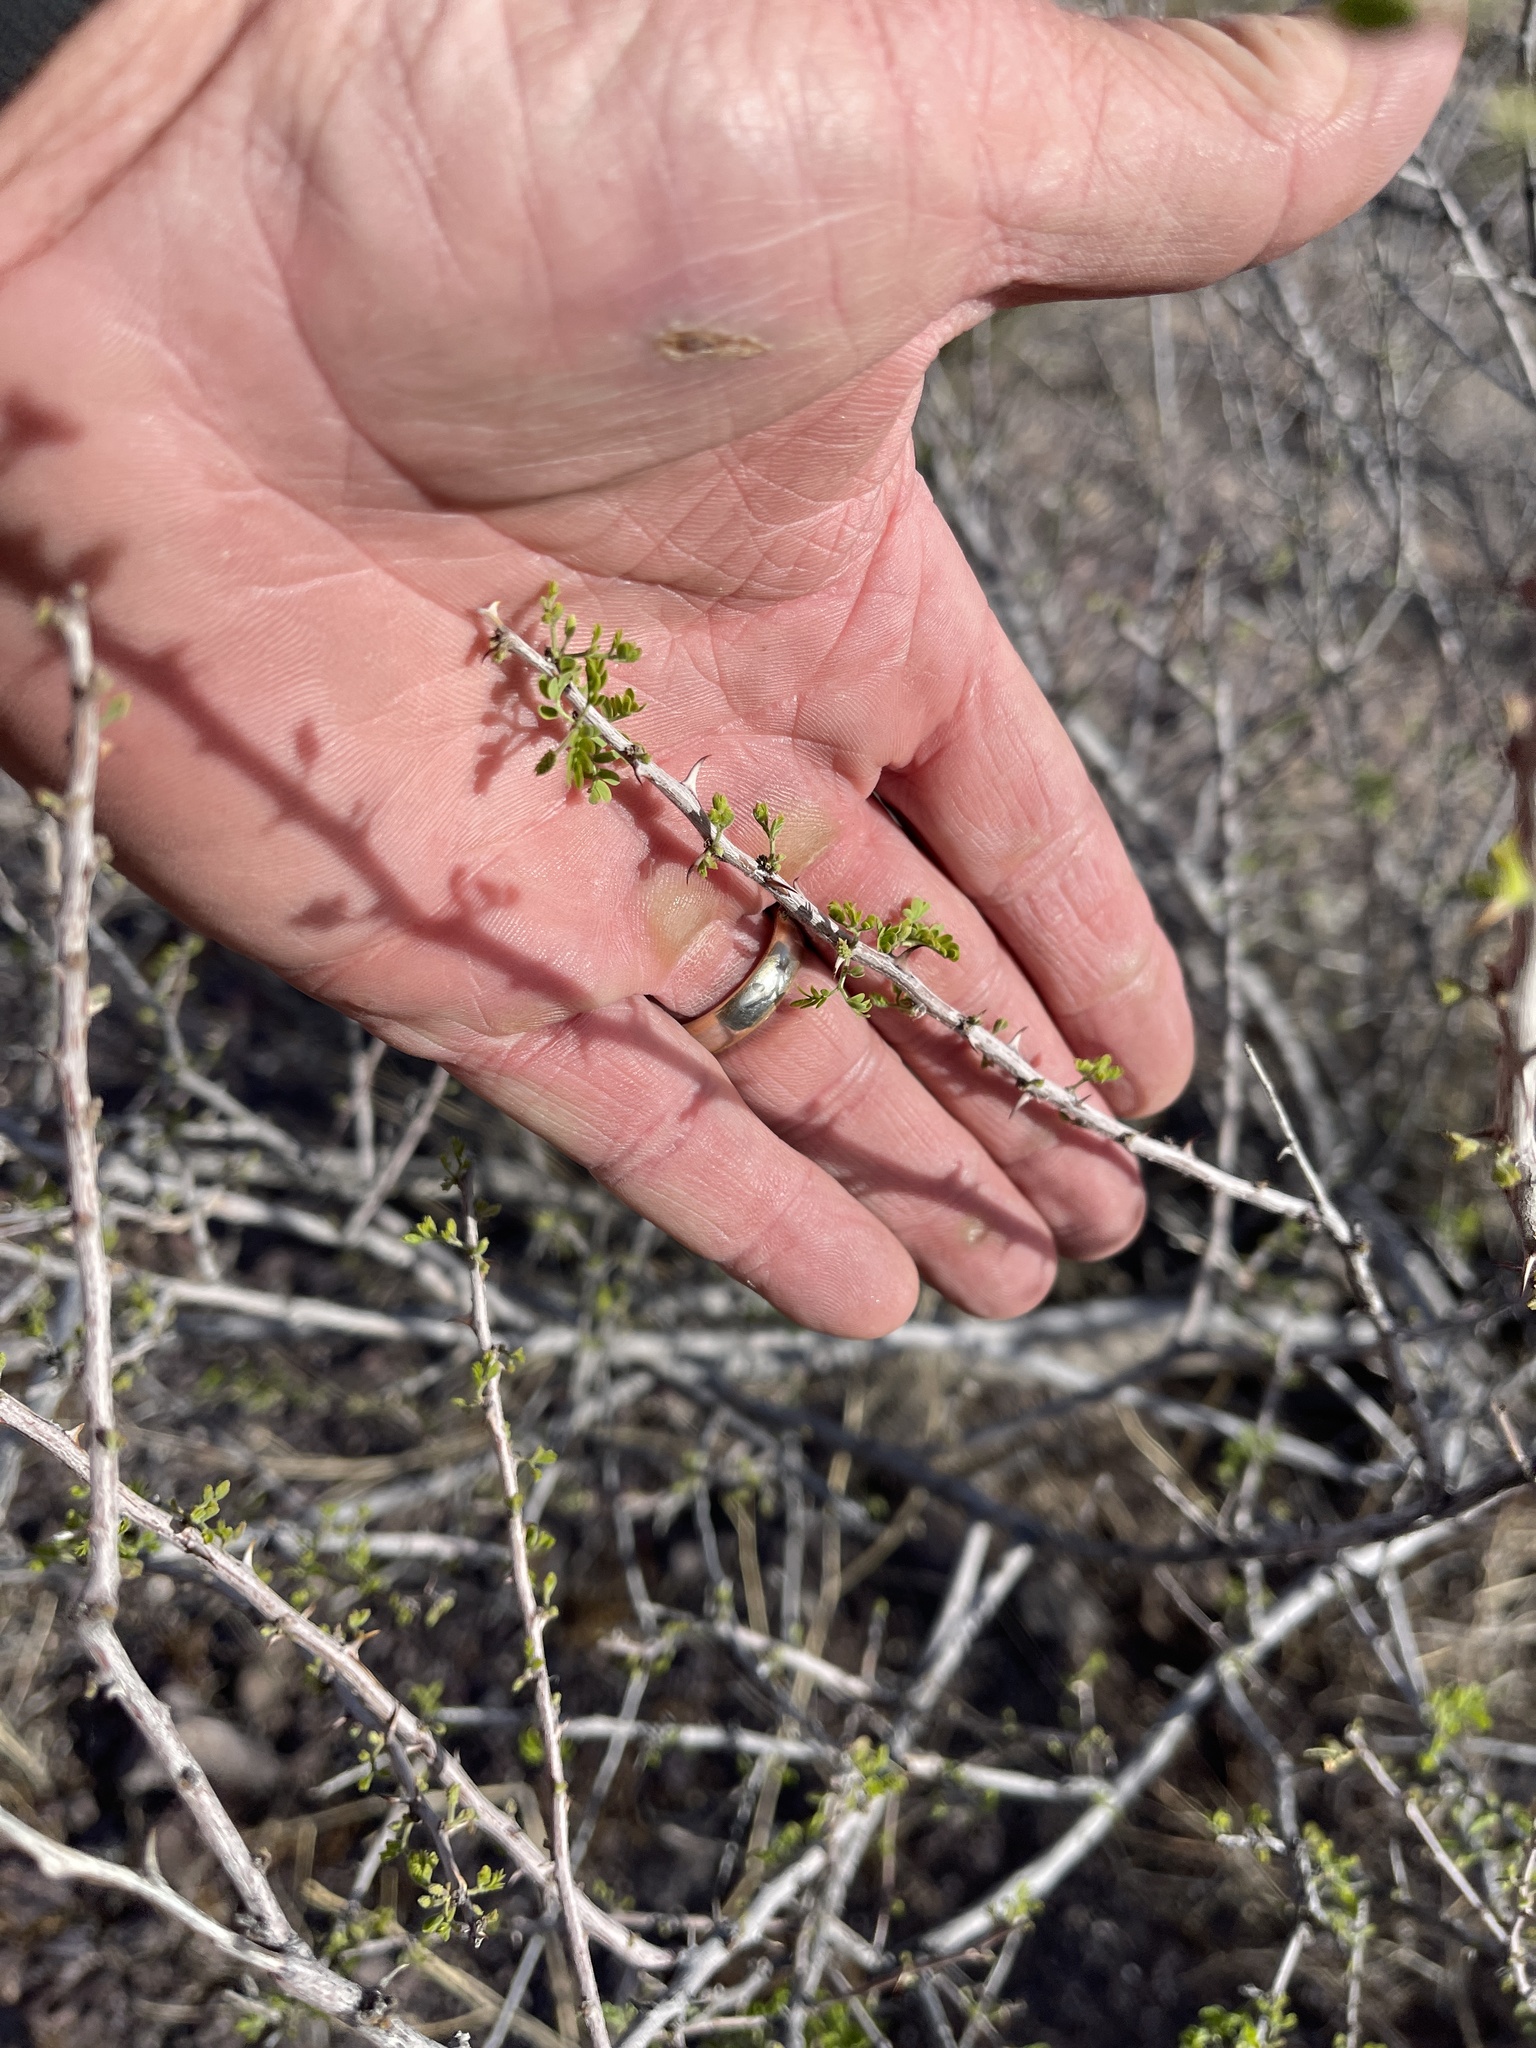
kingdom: Plantae
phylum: Tracheophyta
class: Magnoliopsida
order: Fabales
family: Fabaceae
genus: Mimosa
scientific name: Mimosa aculeaticarpa
